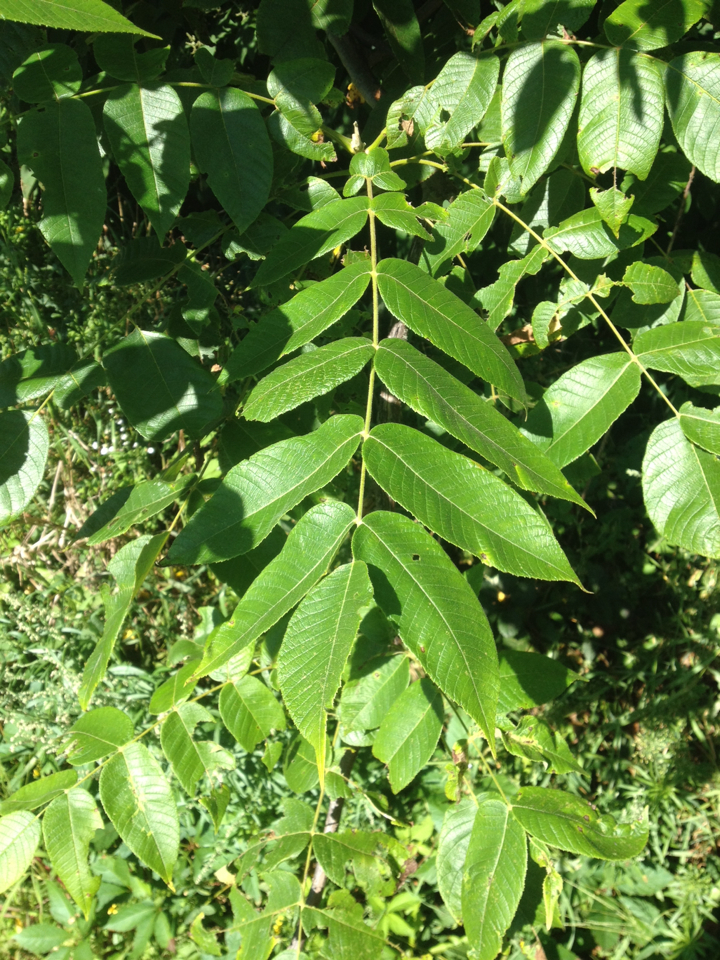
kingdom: Plantae
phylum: Tracheophyta
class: Magnoliopsida
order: Fagales
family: Juglandaceae
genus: Juglans
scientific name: Juglans cinerea
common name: Butternut
